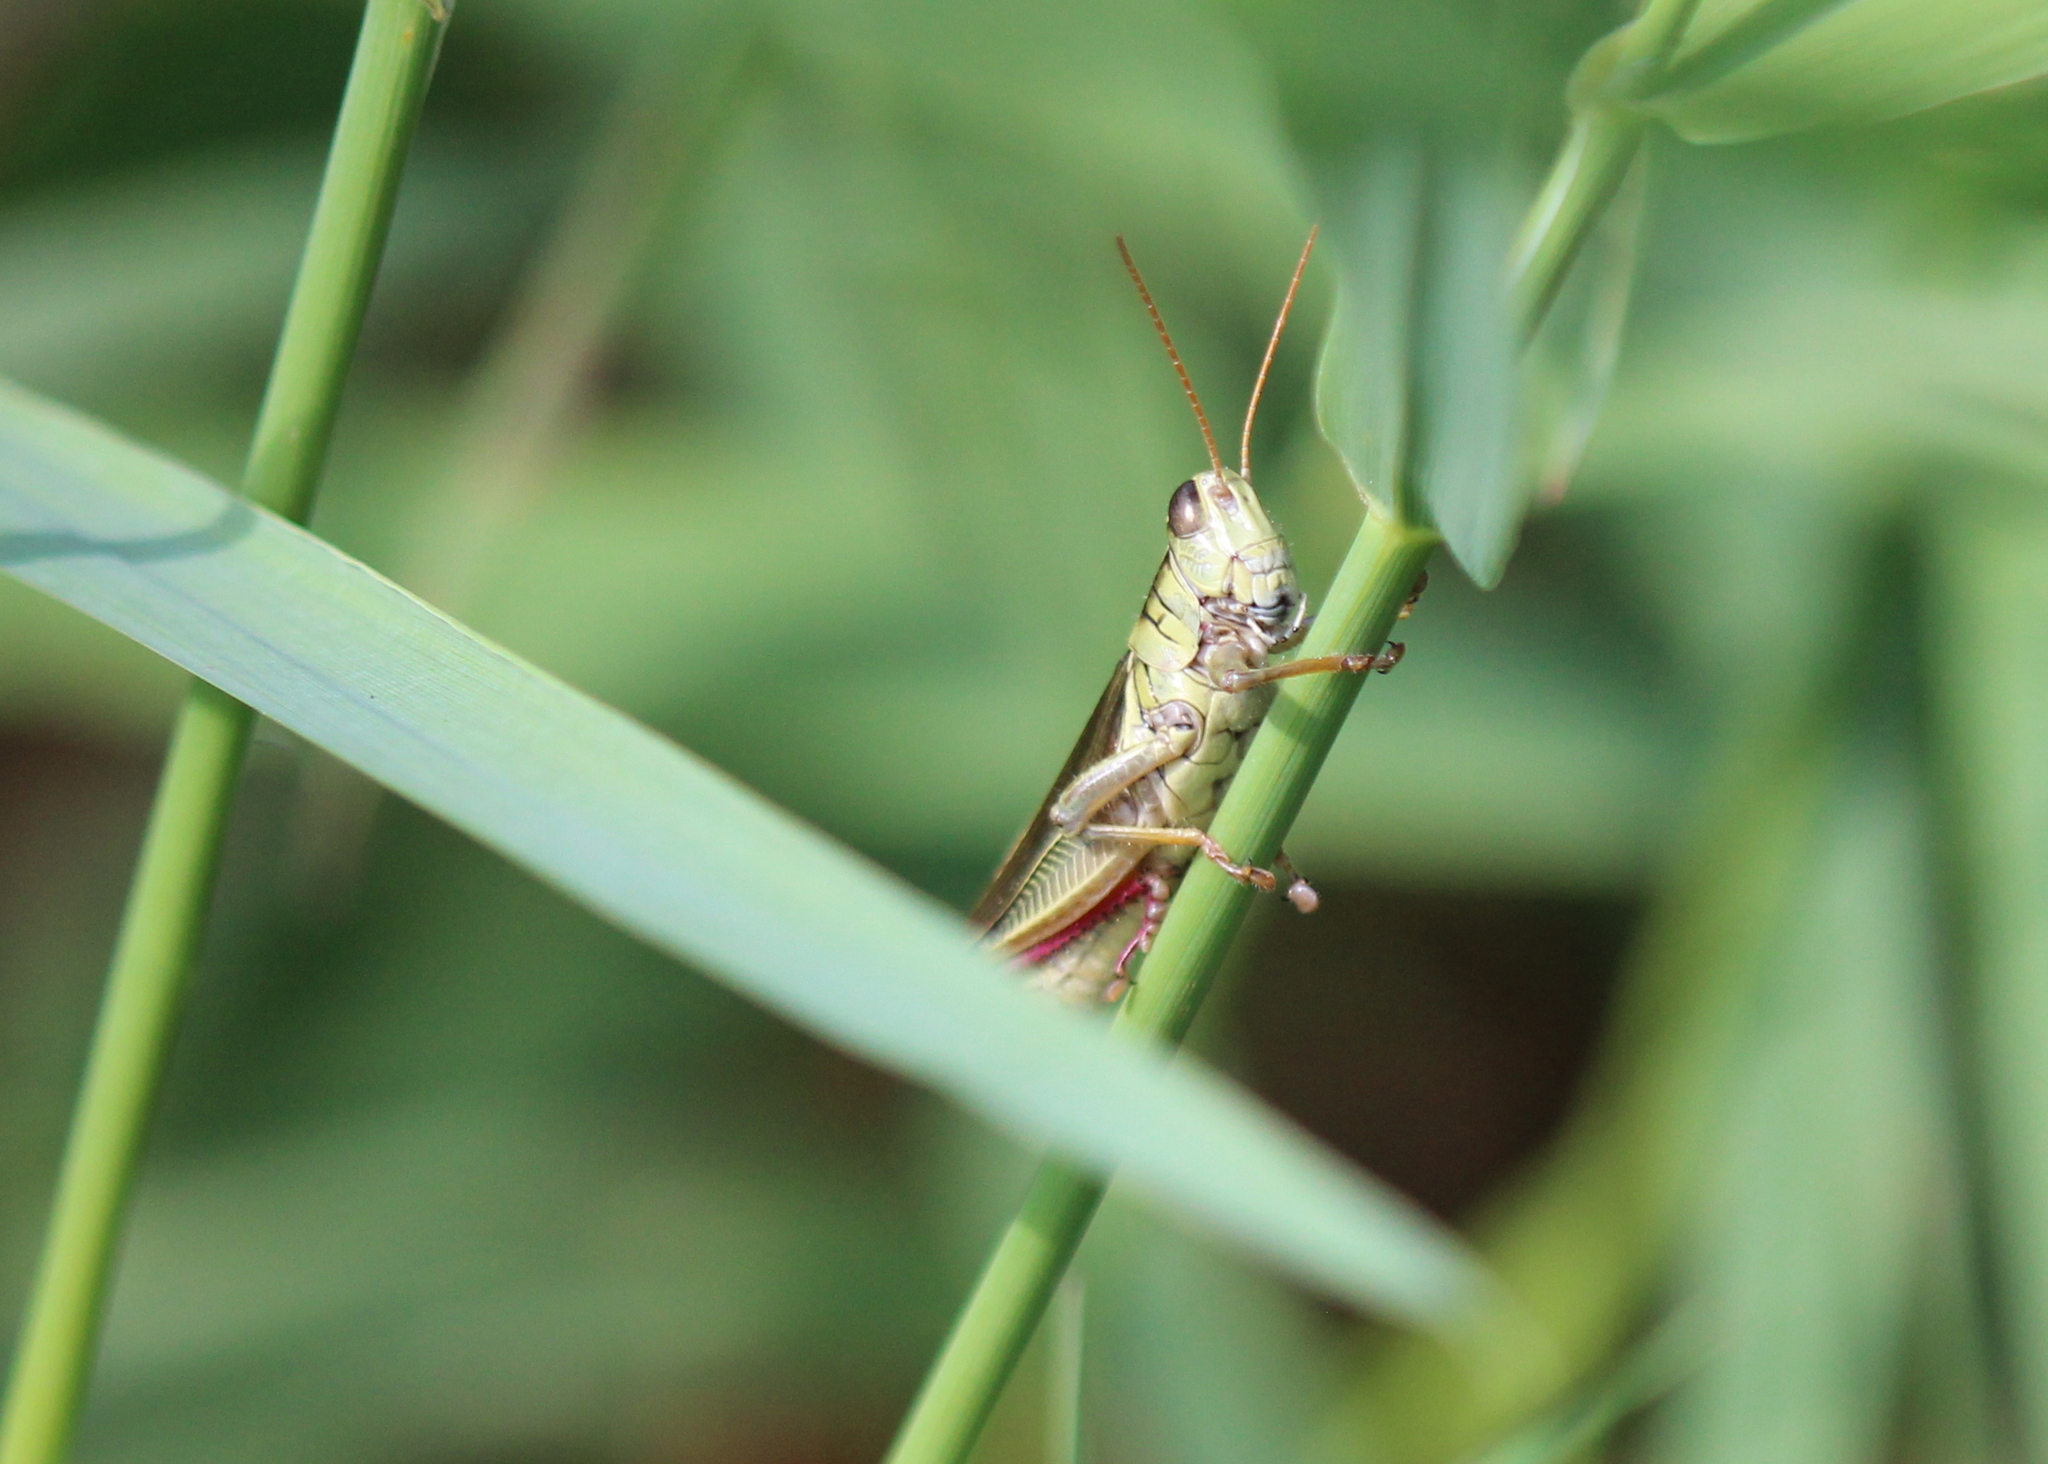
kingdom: Animalia
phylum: Arthropoda
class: Insecta
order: Orthoptera
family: Acrididae
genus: Melanoplus
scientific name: Melanoplus bivittatus
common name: Two-striped grasshopper
